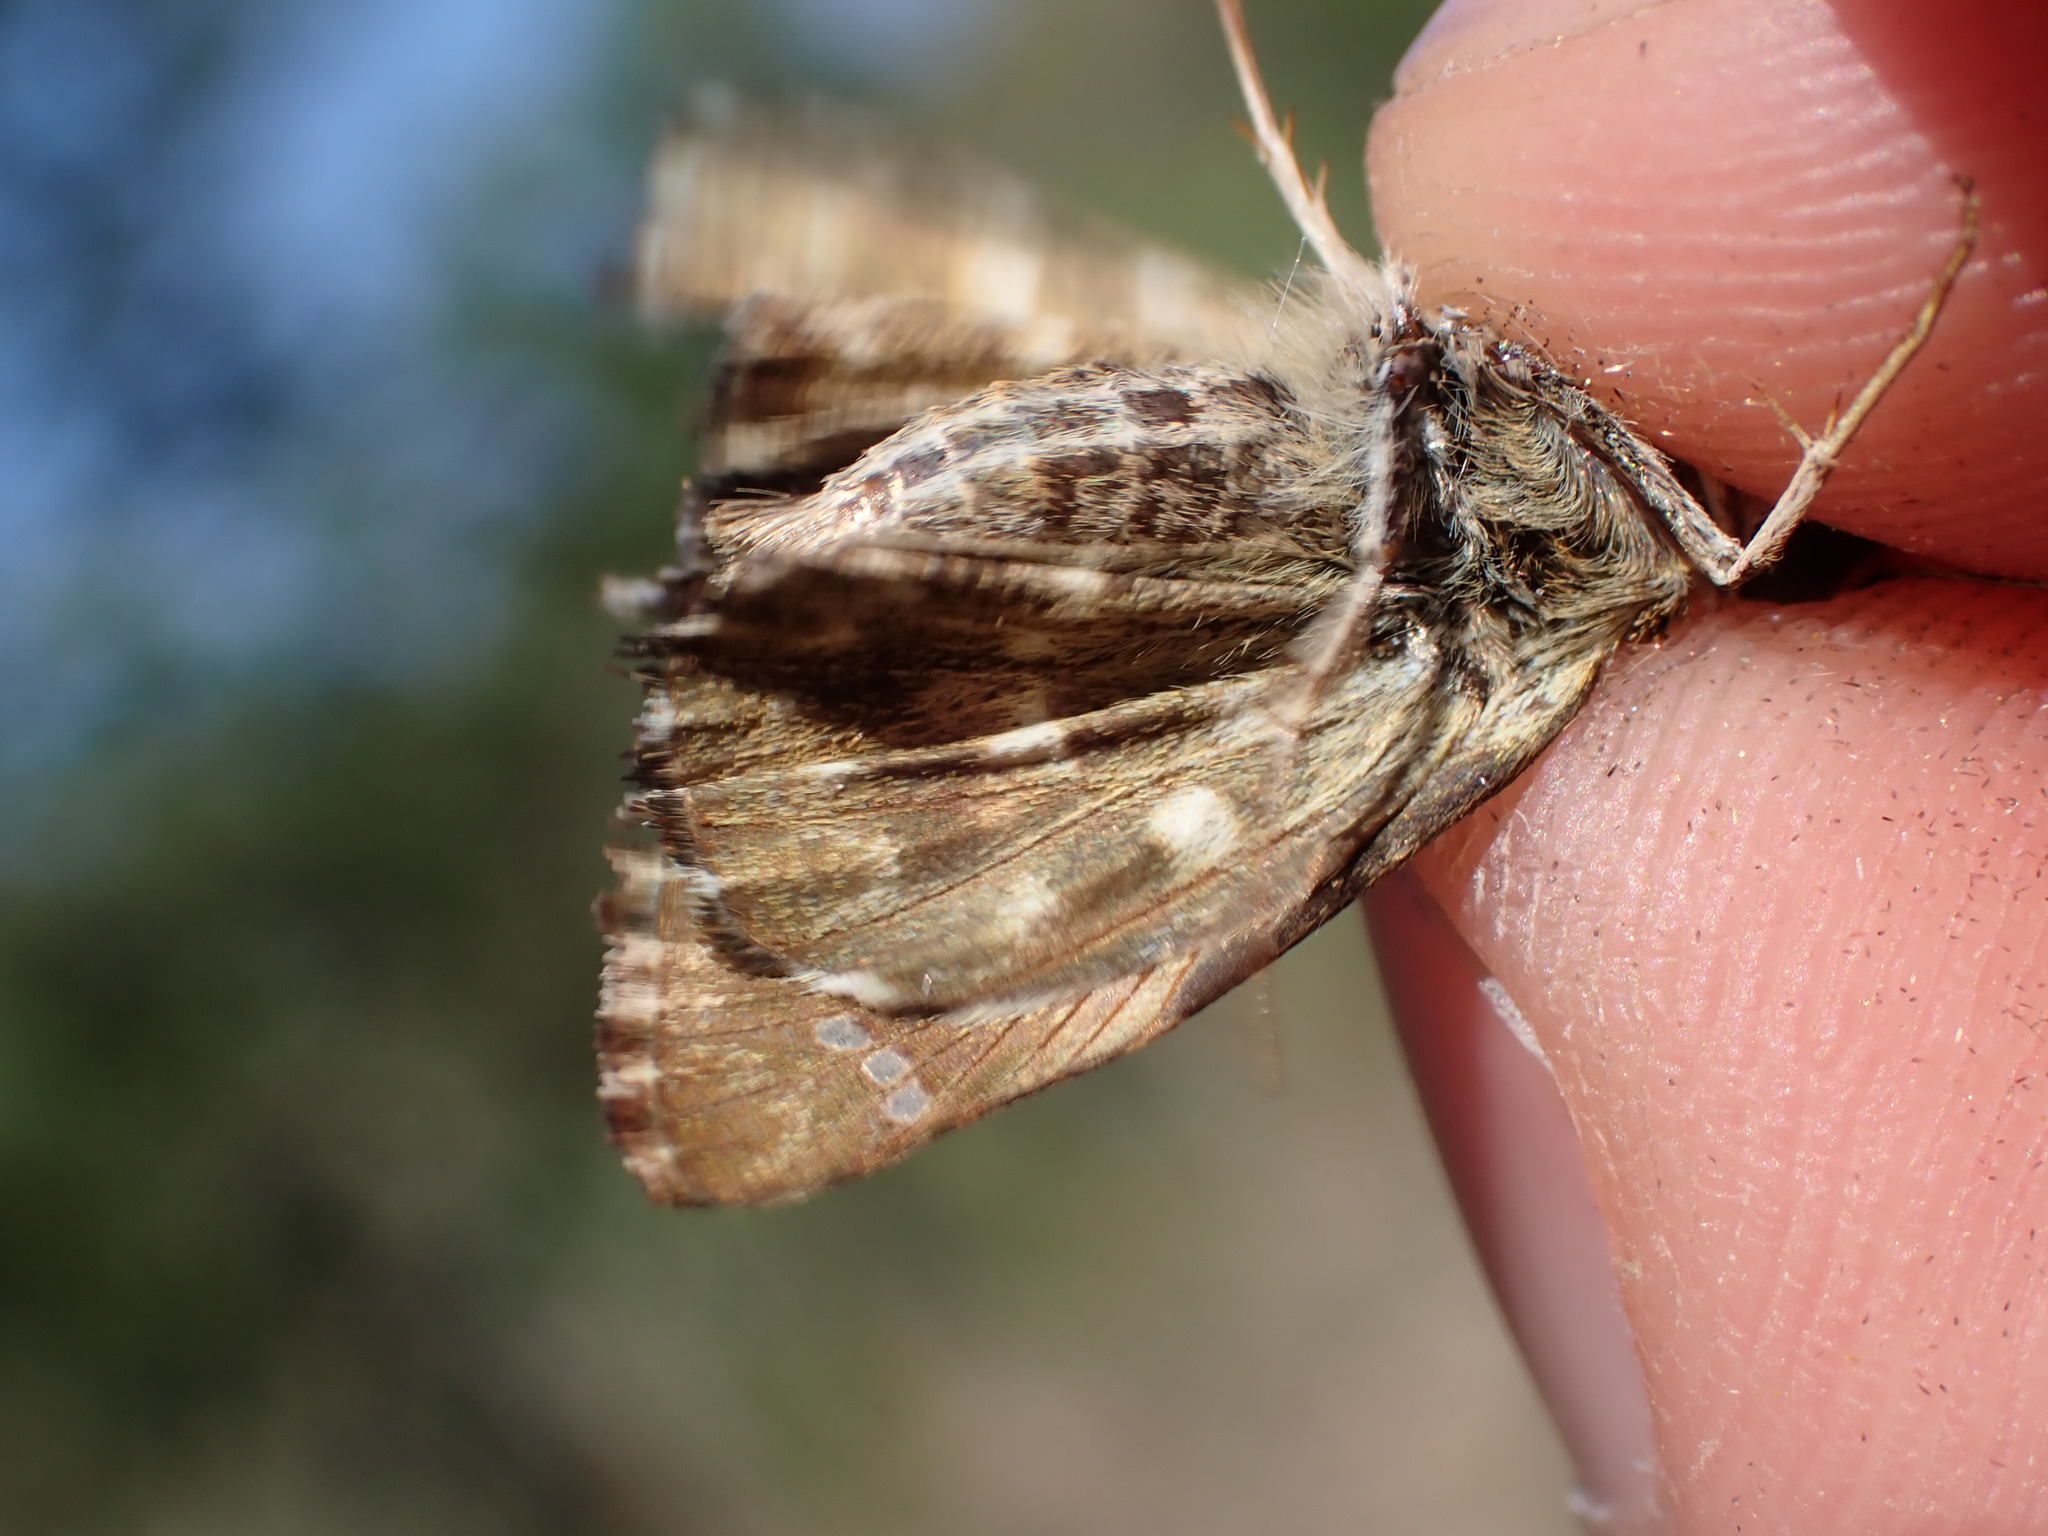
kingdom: Animalia
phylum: Arthropoda
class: Insecta
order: Lepidoptera
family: Hesperiidae
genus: Carcharodus
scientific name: Carcharodus alceae
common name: Mallow skipper
